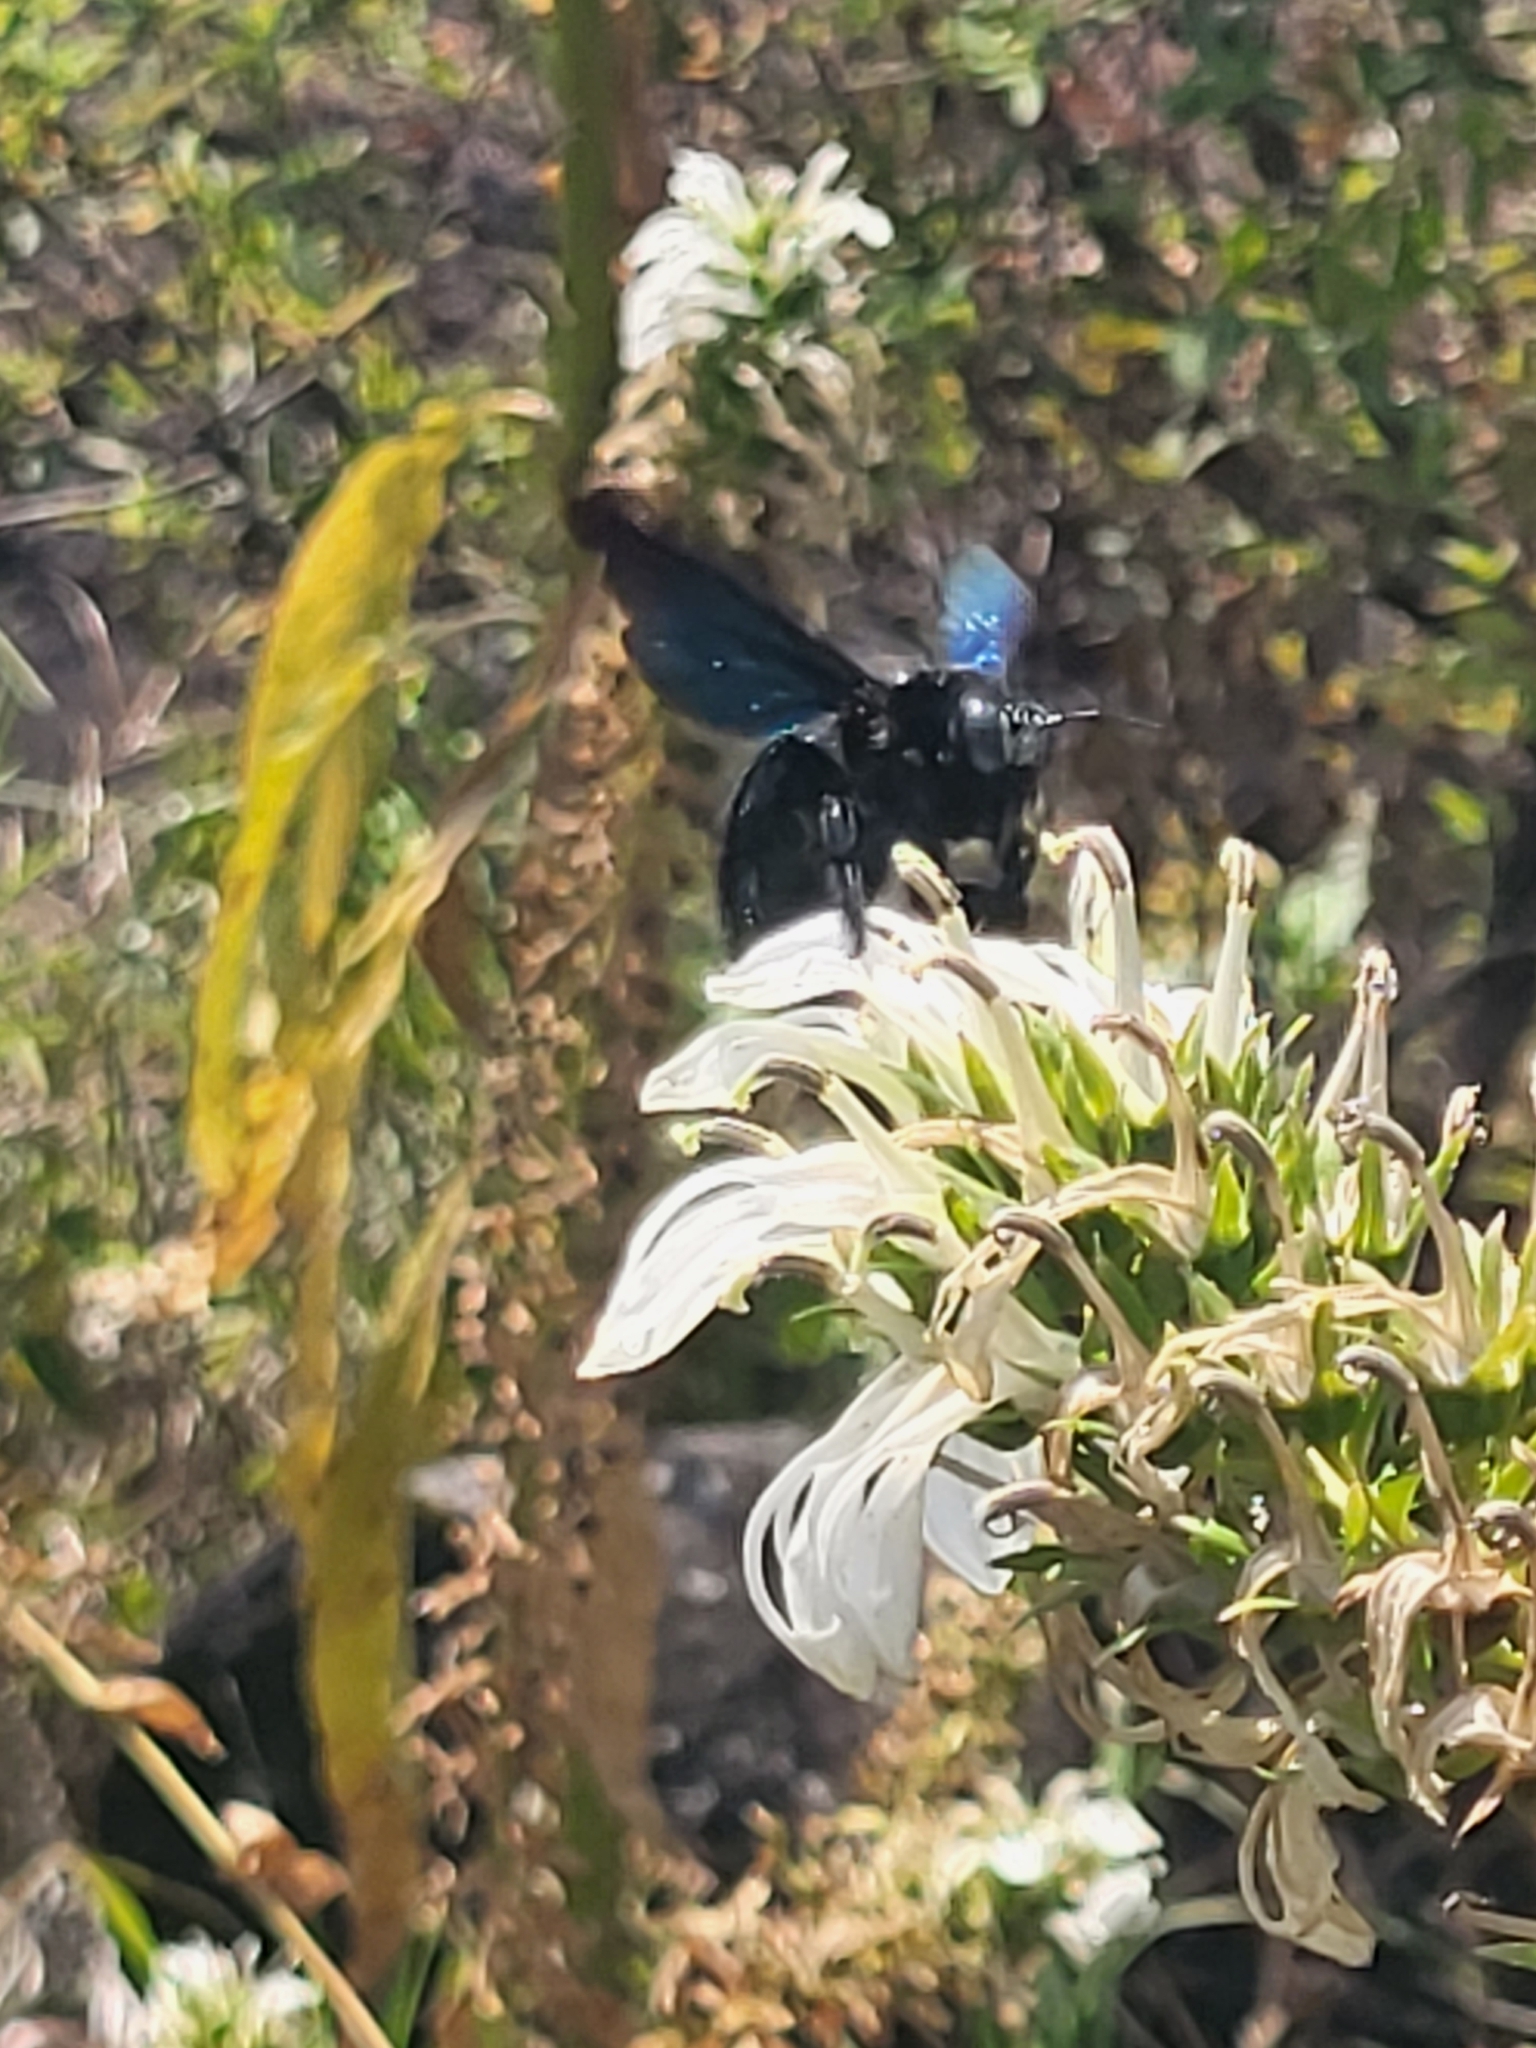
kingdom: Animalia
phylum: Arthropoda
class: Insecta
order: Hymenoptera
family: Apidae
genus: Xylocopa
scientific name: Xylocopa auripennis
